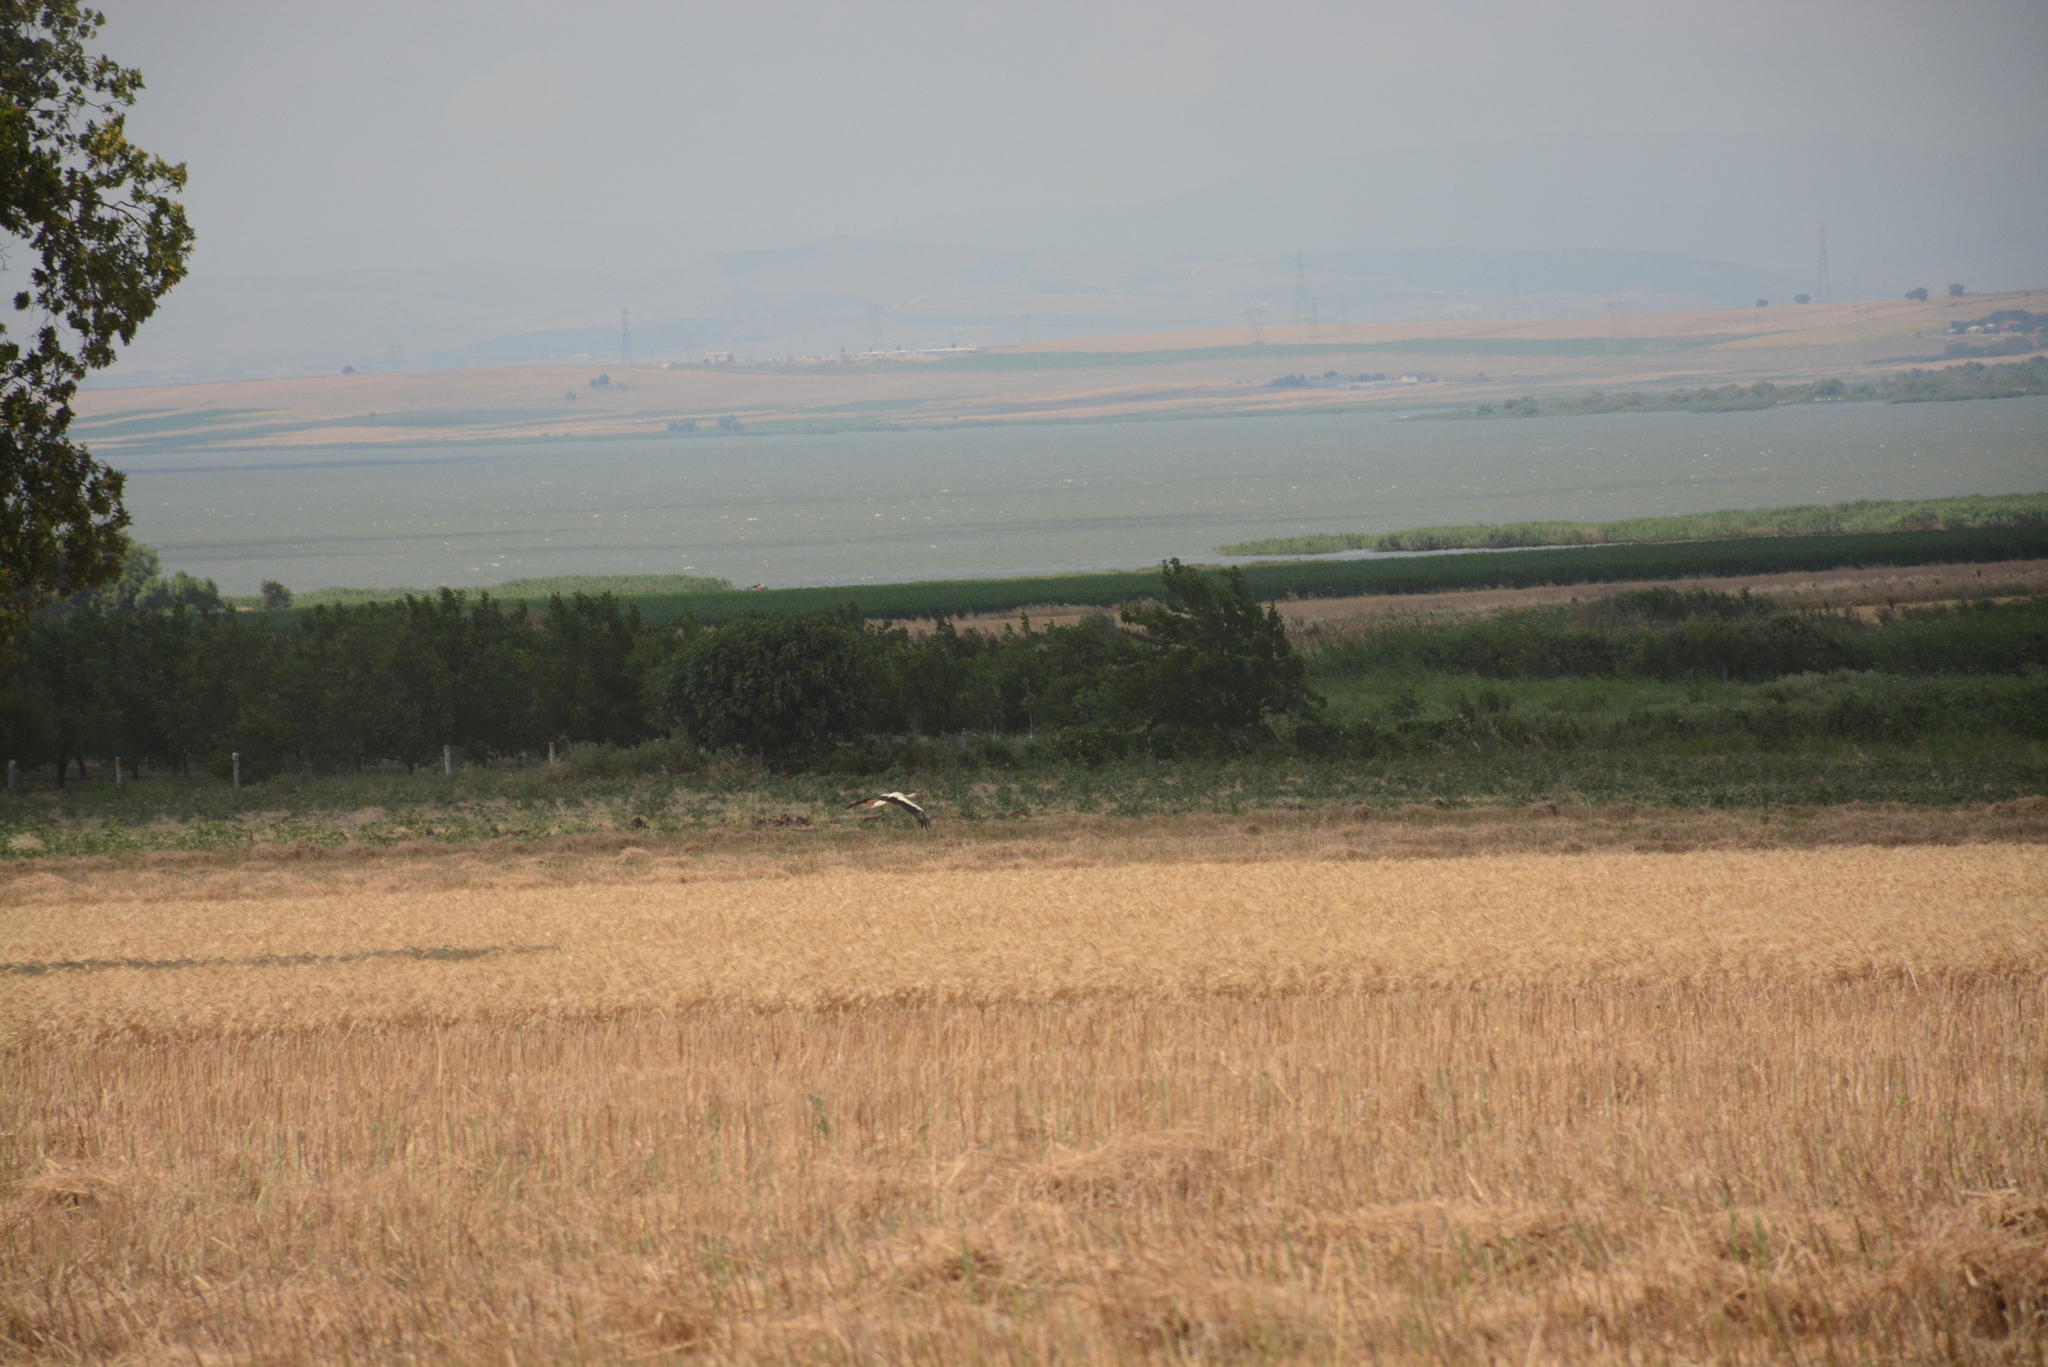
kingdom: Animalia
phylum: Chordata
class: Aves
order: Ciconiiformes
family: Ciconiidae
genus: Ciconia
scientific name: Ciconia ciconia
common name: White stork
